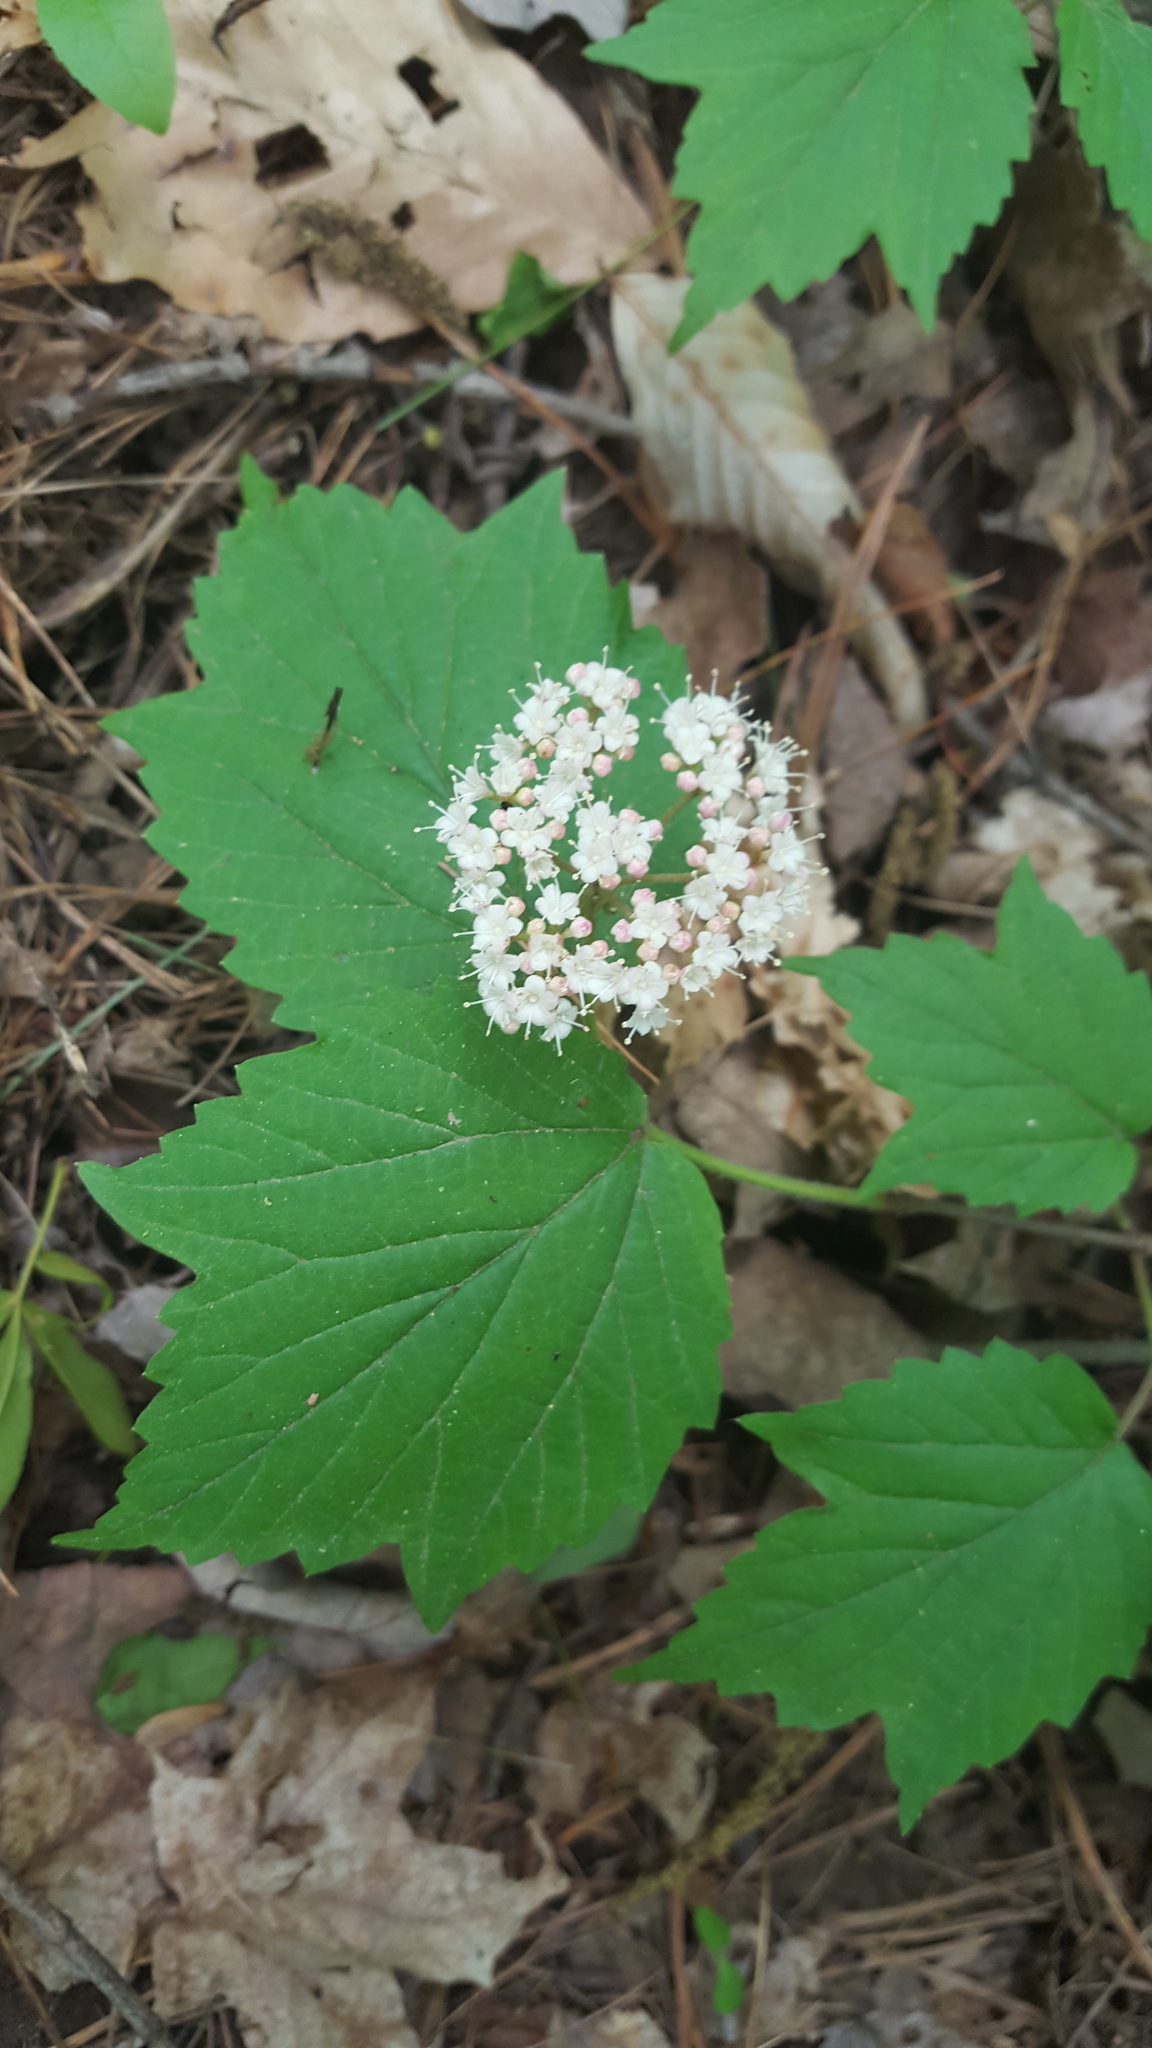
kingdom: Plantae
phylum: Tracheophyta
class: Magnoliopsida
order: Dipsacales
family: Viburnaceae
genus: Viburnum
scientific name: Viburnum acerifolium
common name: Dockmackie
